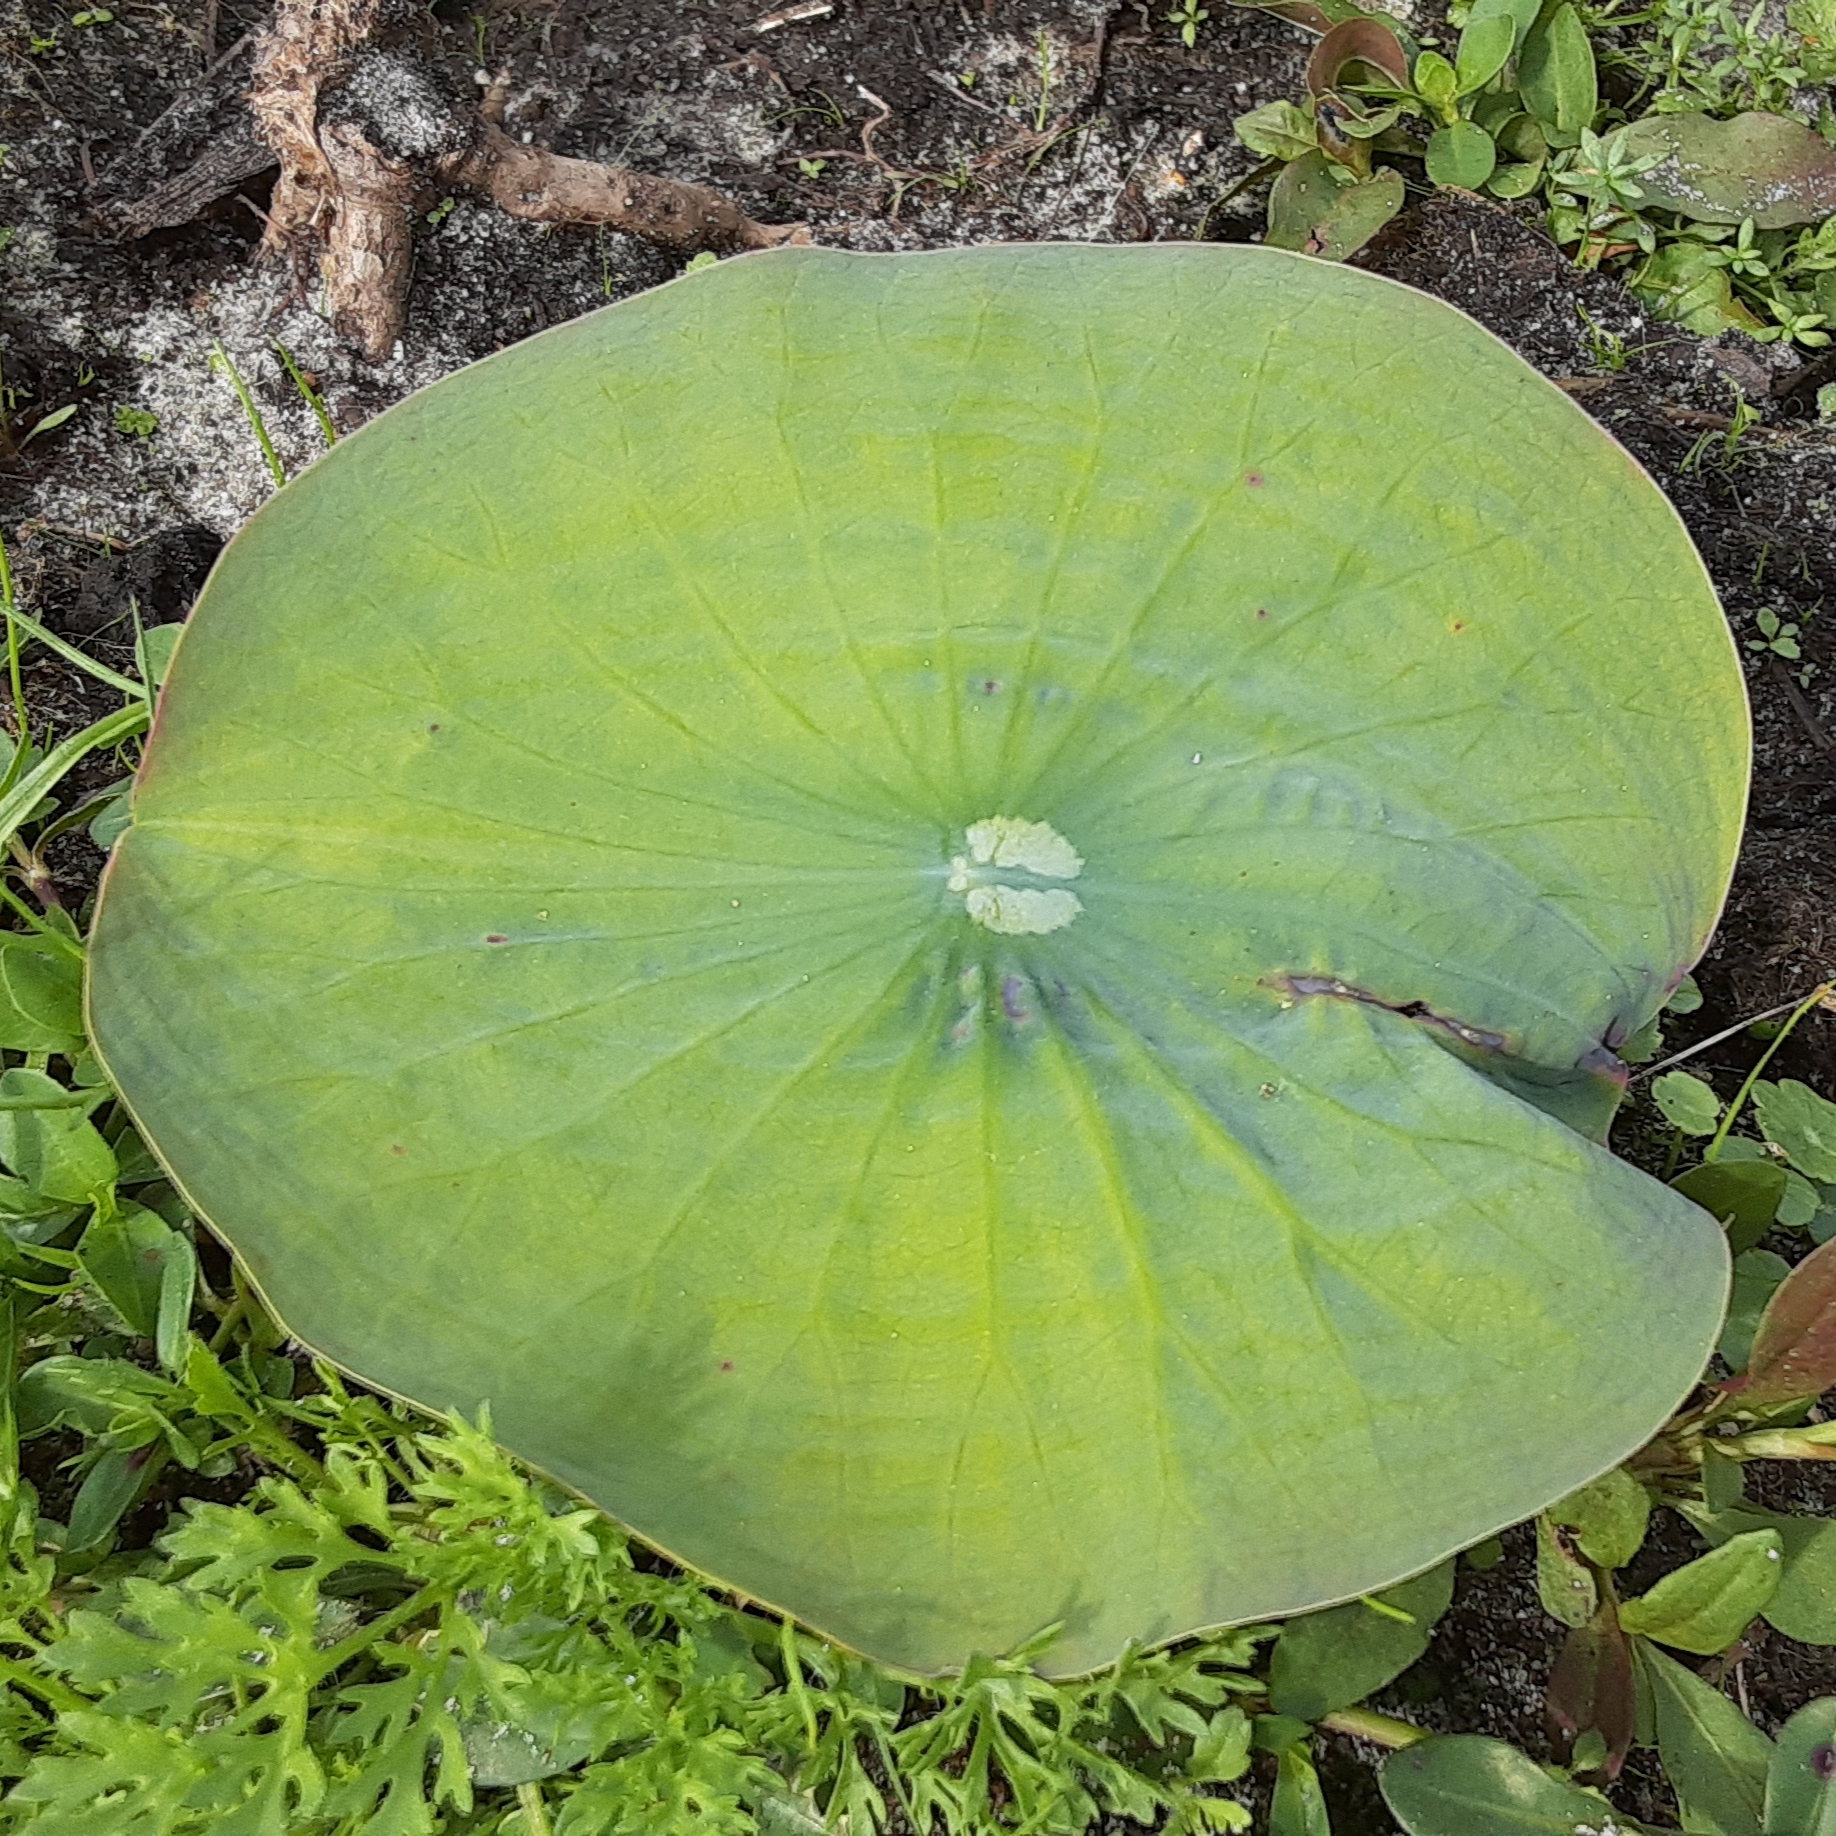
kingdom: Plantae
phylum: Tracheophyta
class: Magnoliopsida
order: Proteales
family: Nelumbonaceae
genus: Nelumbo
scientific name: Nelumbo lutea
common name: American lotus
